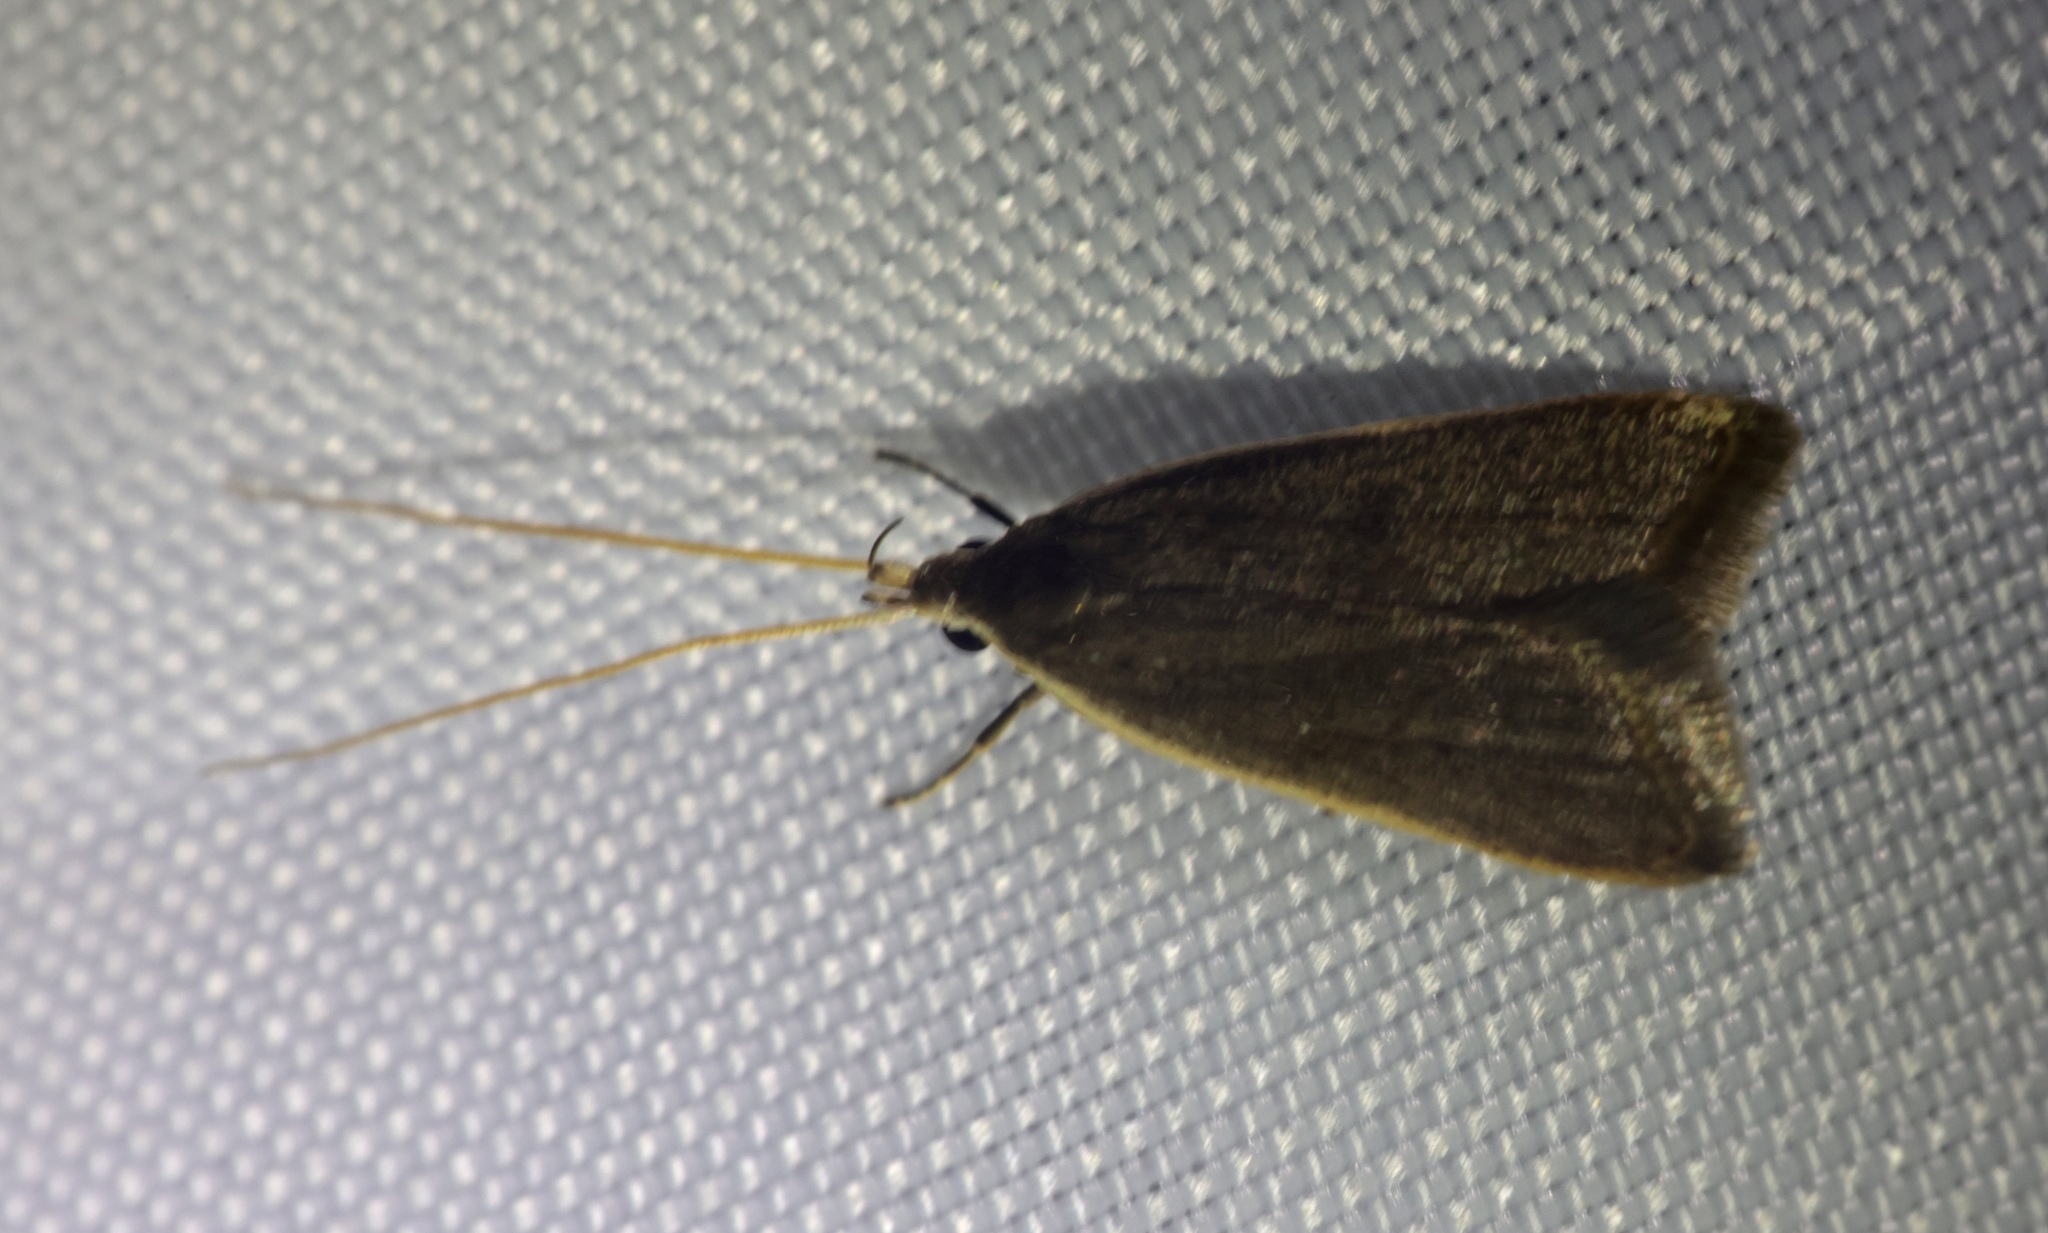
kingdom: Animalia
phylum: Arthropoda
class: Insecta
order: Lepidoptera
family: Lecithoceridae
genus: Homaloxestis
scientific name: Homaloxestis multidentalis
